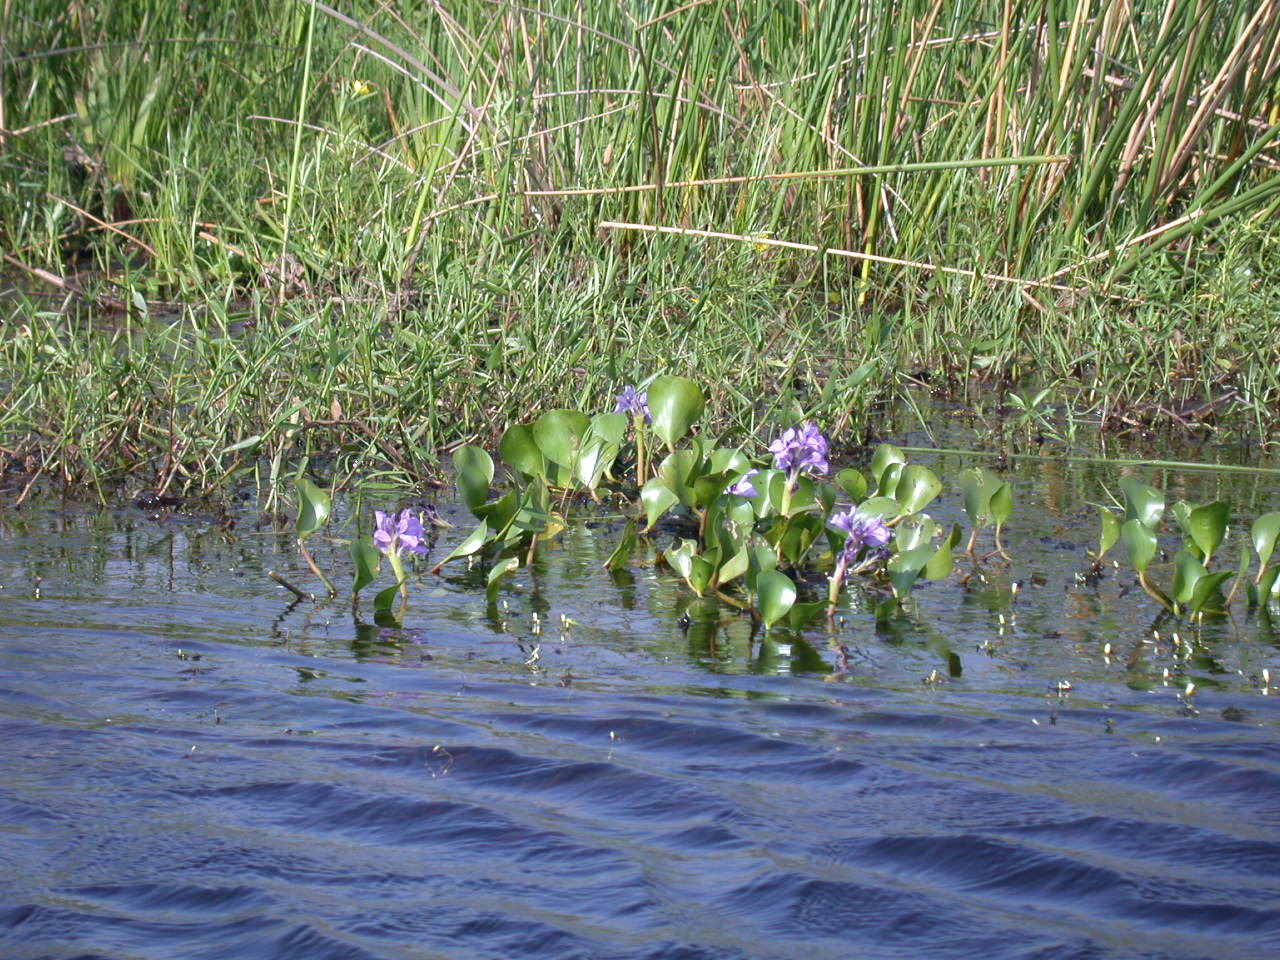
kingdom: Plantae
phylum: Tracheophyta
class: Liliopsida
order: Commelinales
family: Pontederiaceae
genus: Pontederia
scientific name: Pontederia azurea
